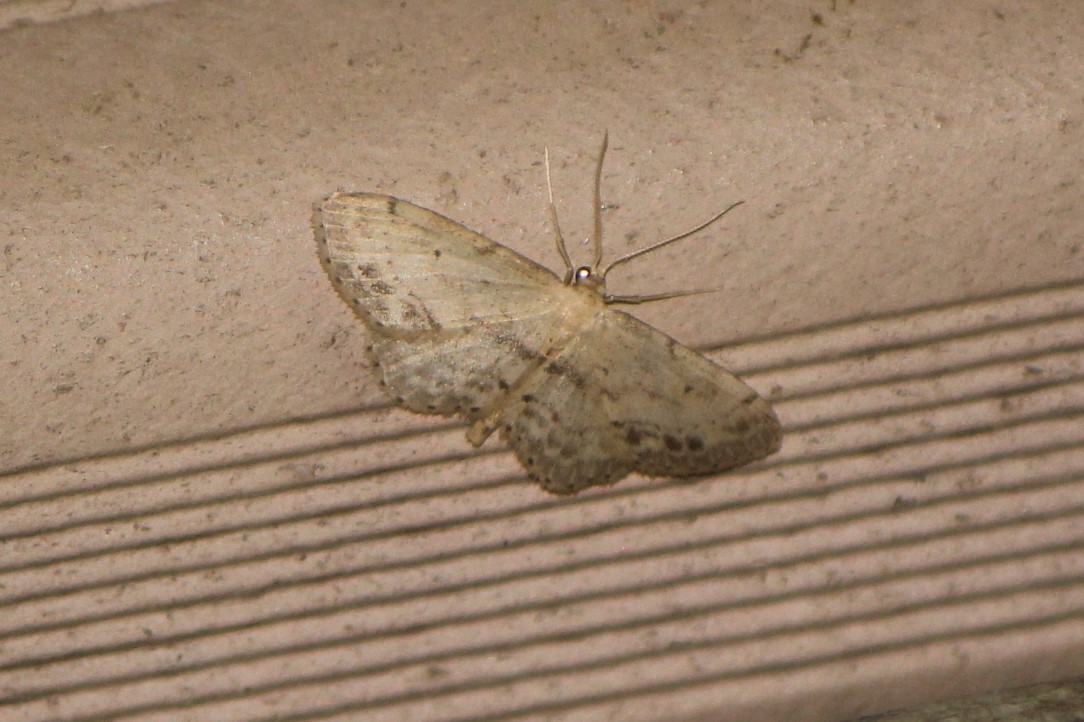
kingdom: Animalia
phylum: Arthropoda
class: Insecta
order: Lepidoptera
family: Geometridae
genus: Idaea
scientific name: Idaea dimidiata
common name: Single-dotted wave
